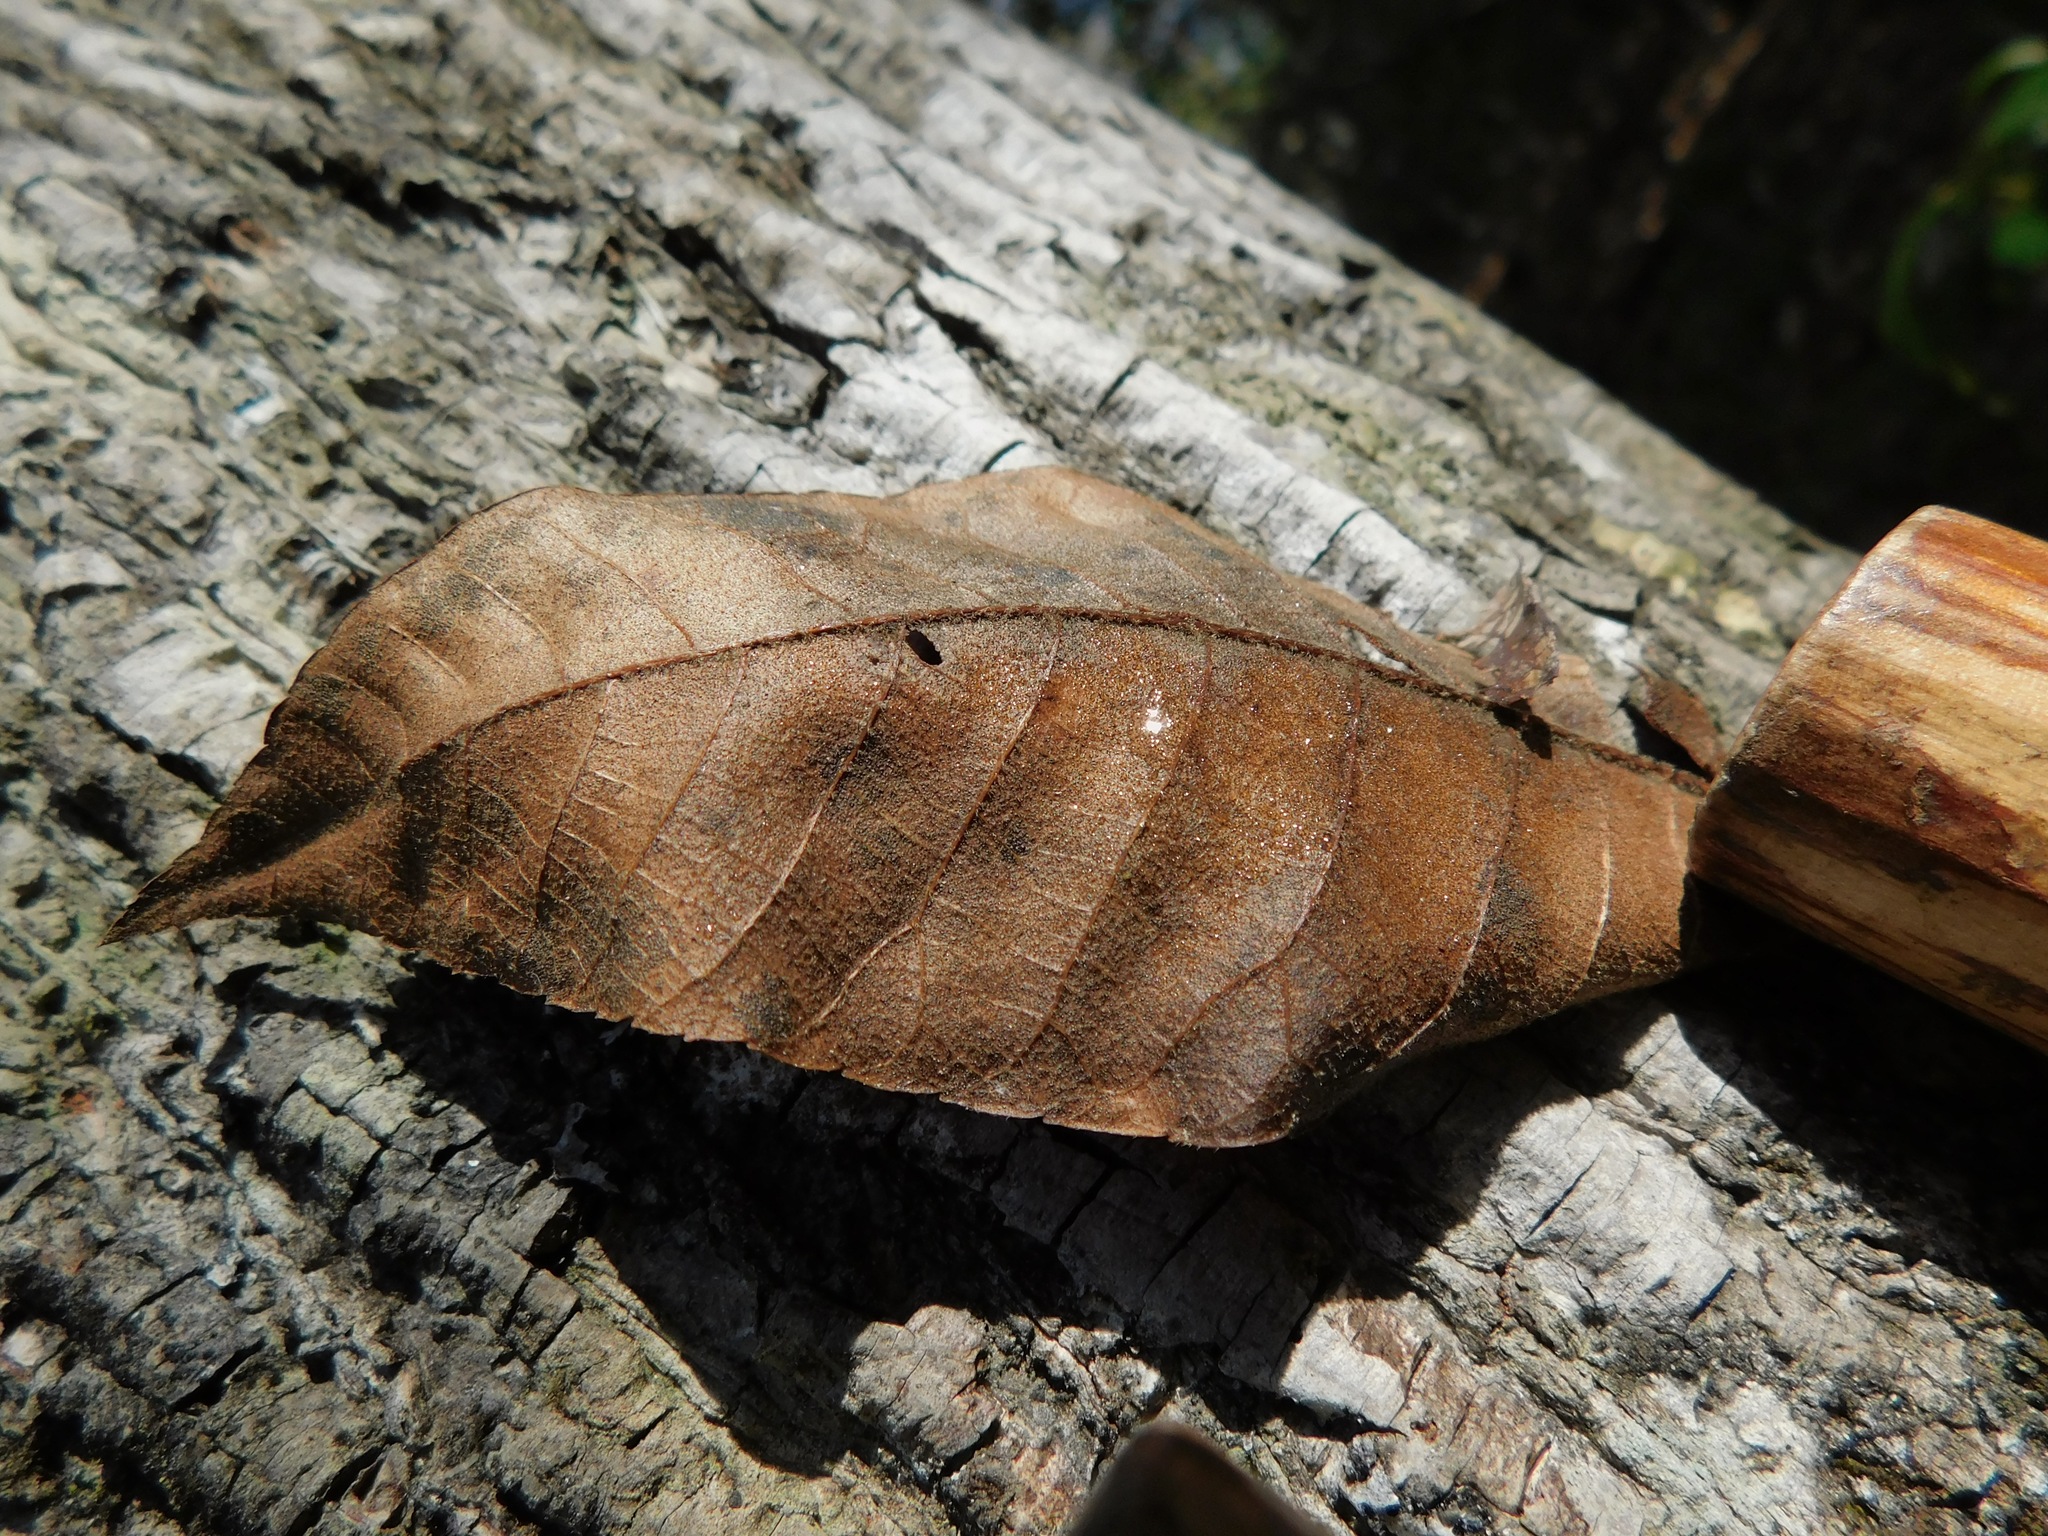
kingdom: Plantae
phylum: Tracheophyta
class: Magnoliopsida
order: Fagales
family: Juglandaceae
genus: Carya
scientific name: Carya alba
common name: Mockernut hickory
